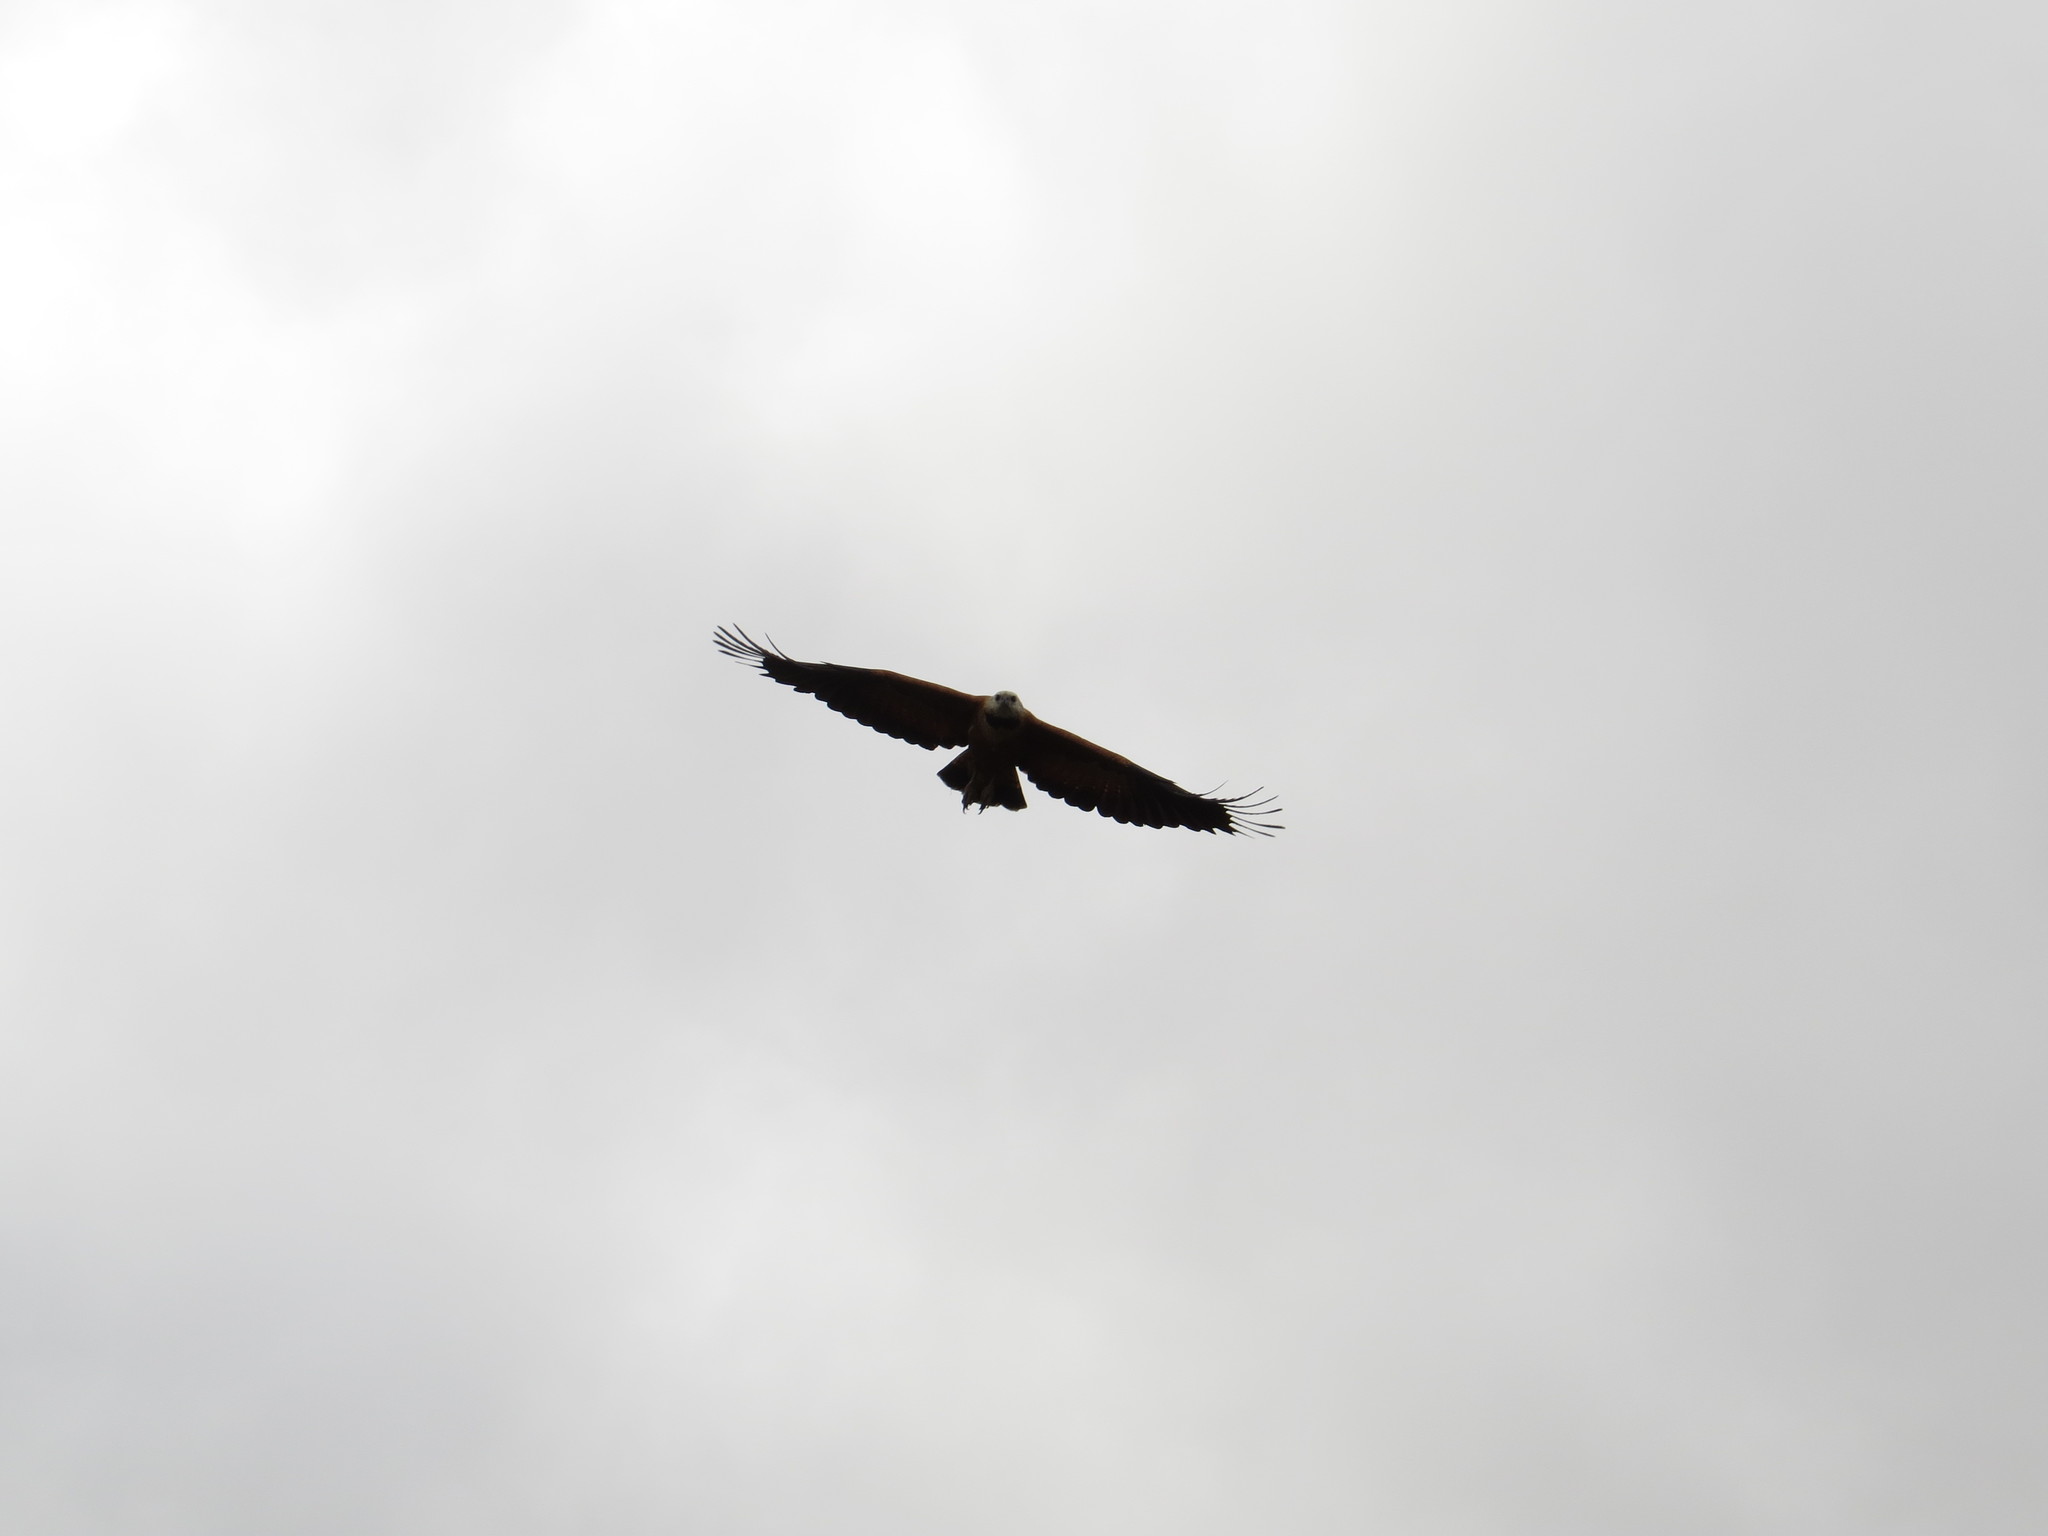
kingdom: Animalia
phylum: Chordata
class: Aves
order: Accipitriformes
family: Accipitridae
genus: Busarellus
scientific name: Busarellus nigricollis
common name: Black-collared hawk
